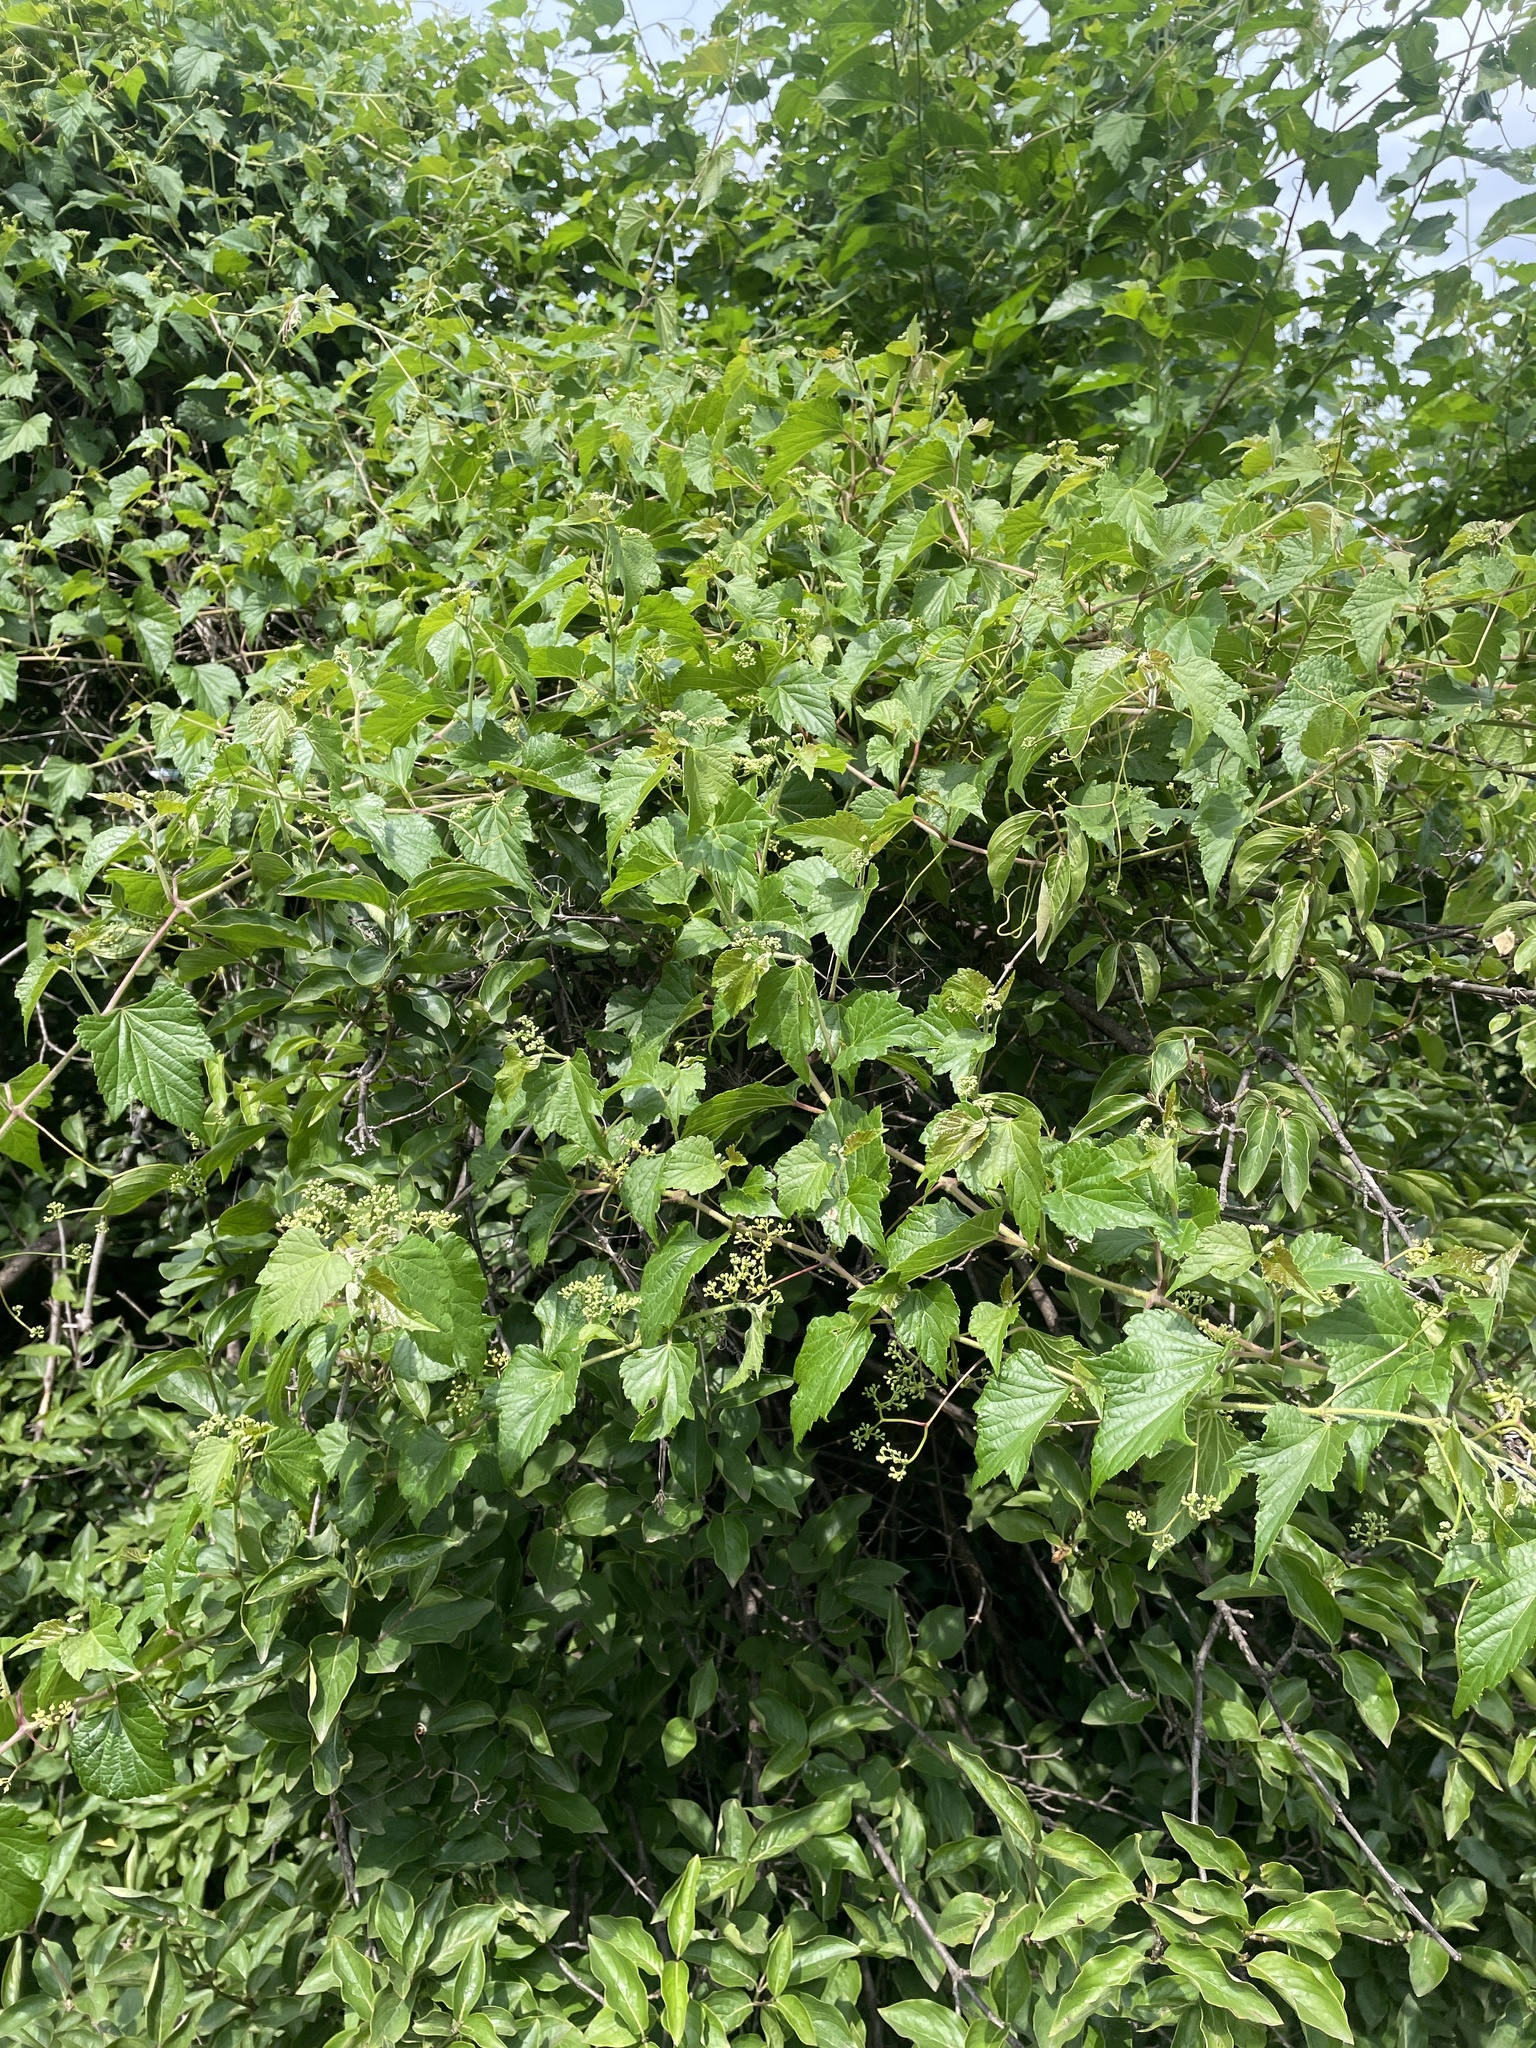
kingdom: Plantae
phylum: Tracheophyta
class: Magnoliopsida
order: Vitales
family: Vitaceae
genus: Ampelopsis
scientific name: Ampelopsis glandulosa
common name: Amur peppervine
